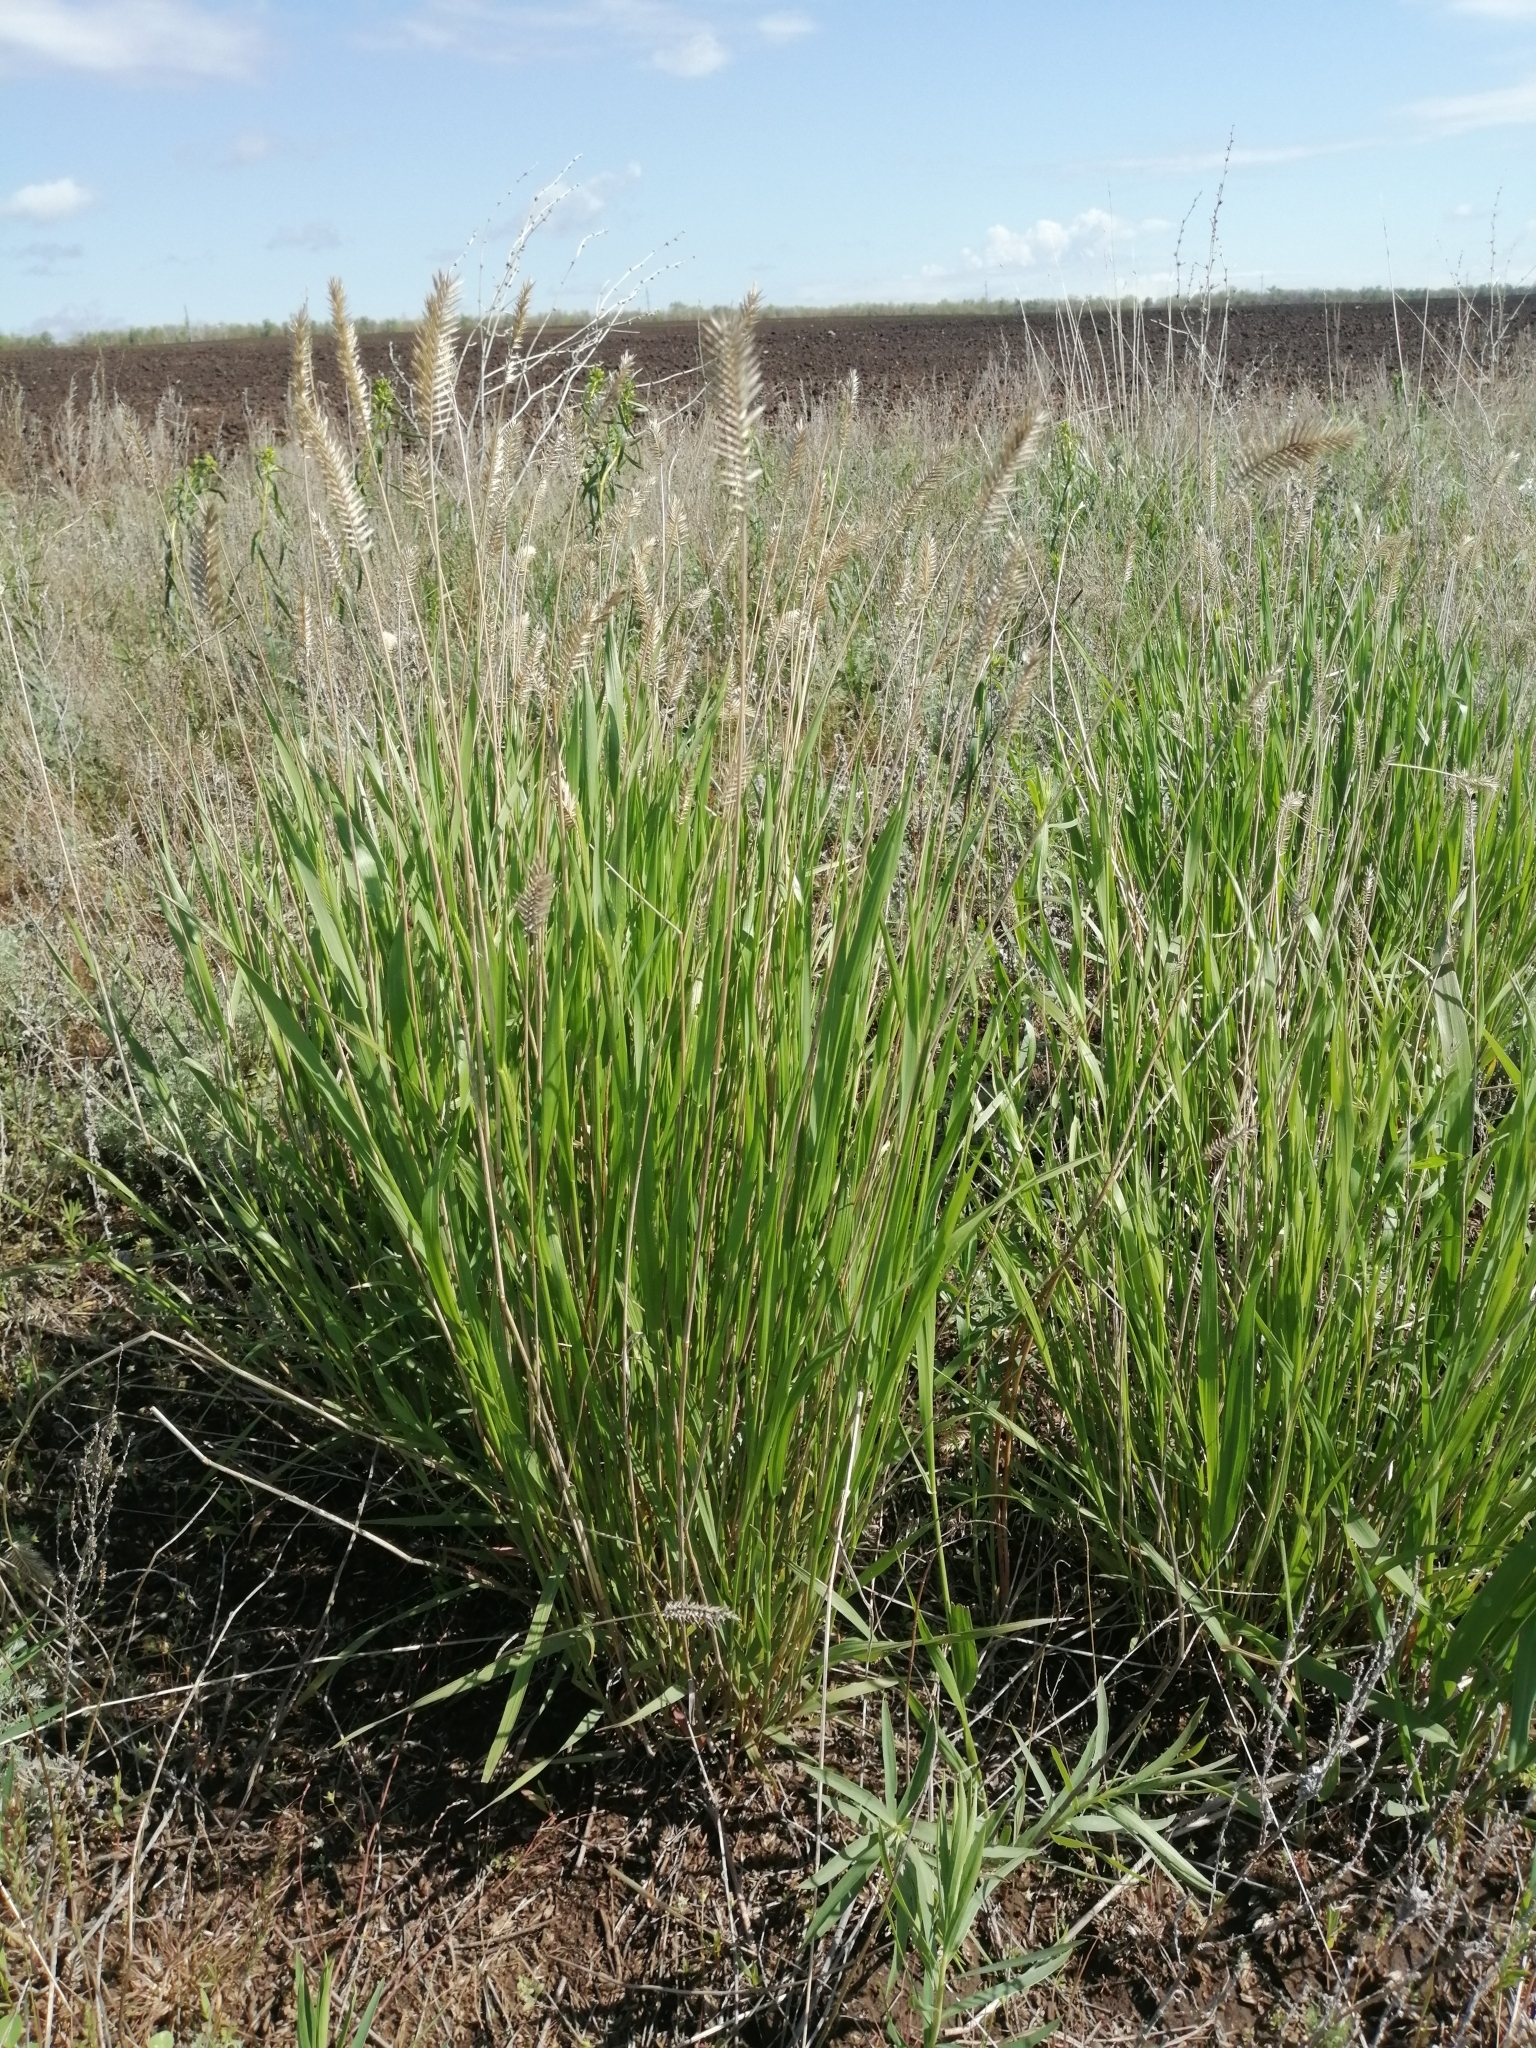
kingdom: Plantae
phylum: Tracheophyta
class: Liliopsida
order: Poales
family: Poaceae
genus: Agropyron
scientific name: Agropyron cristatum
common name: Crested wheatgrass
